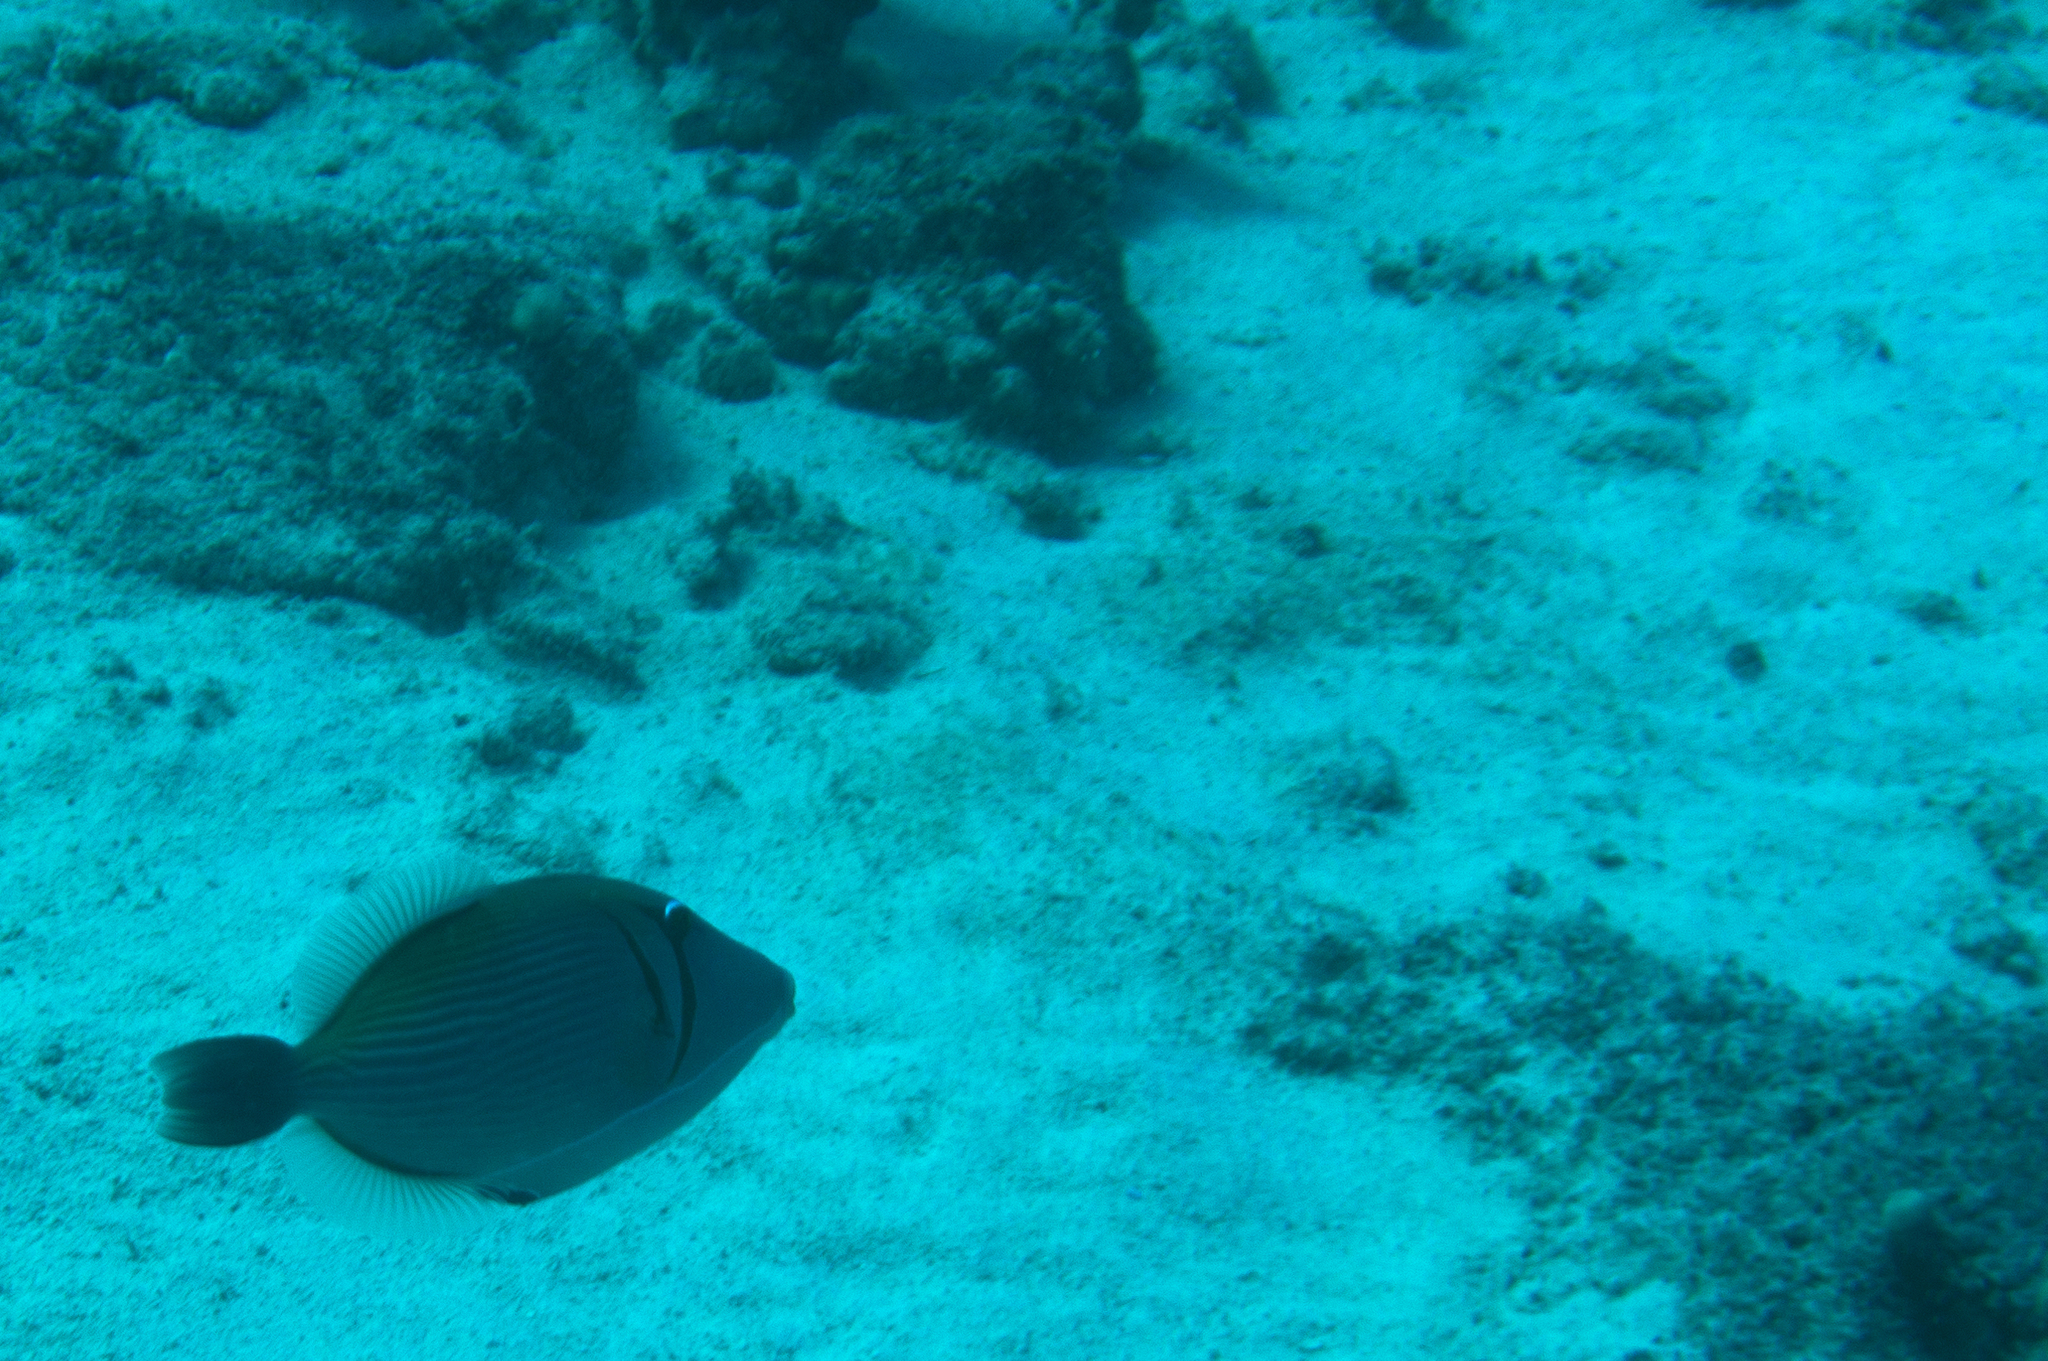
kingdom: Animalia
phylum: Chordata
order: Tetraodontiformes
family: Balistidae
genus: Sufflamen
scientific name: Sufflamen bursa
